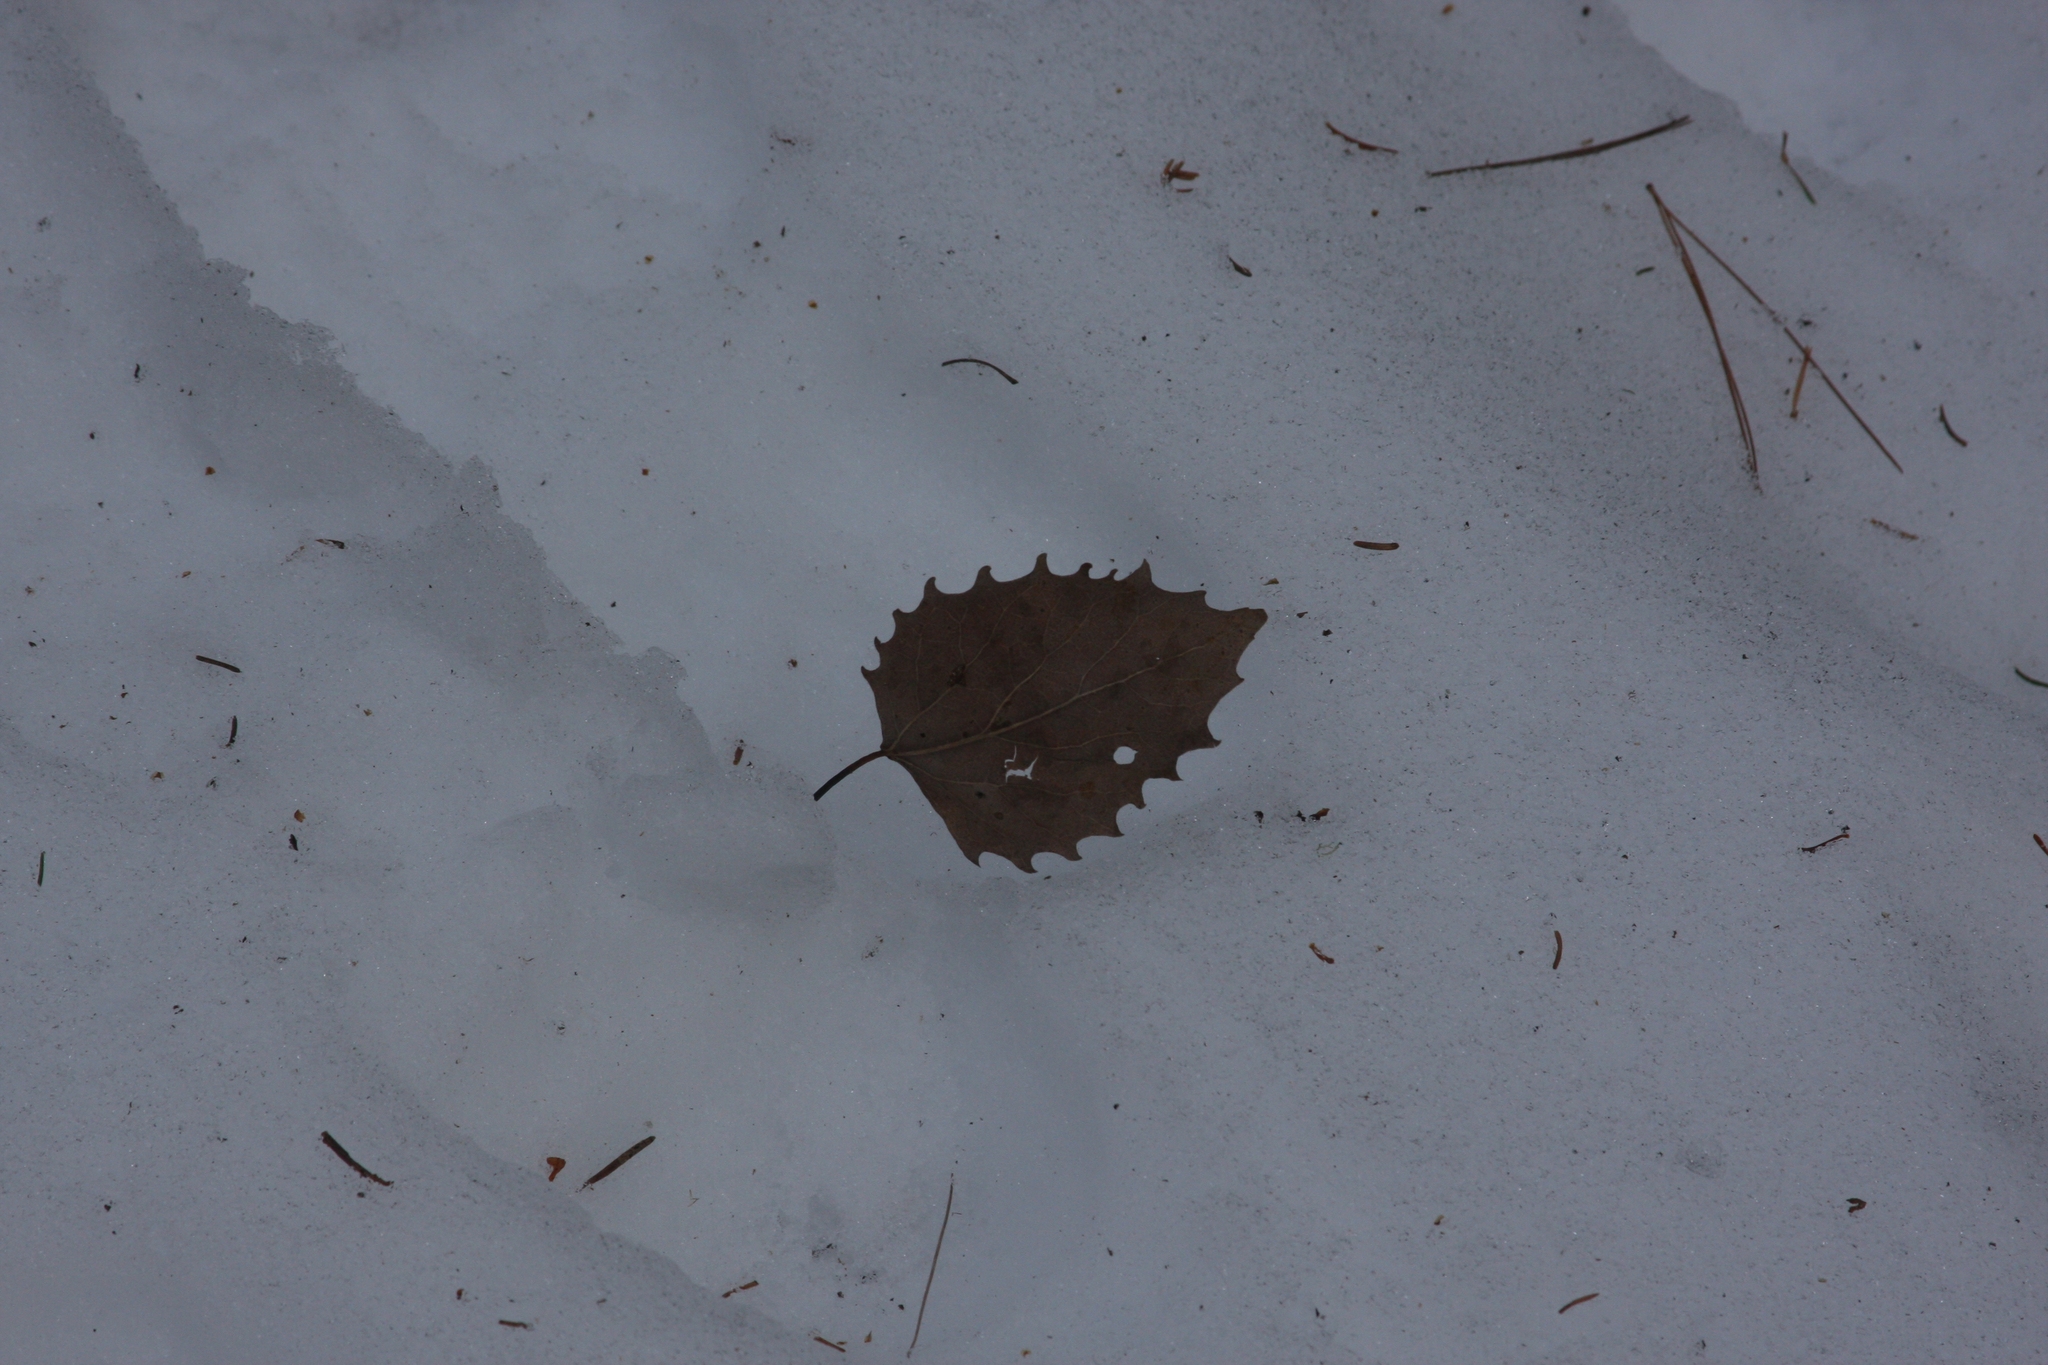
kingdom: Plantae
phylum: Tracheophyta
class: Magnoliopsida
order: Malpighiales
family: Salicaceae
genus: Populus
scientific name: Populus grandidentata
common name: Bigtooth aspen
